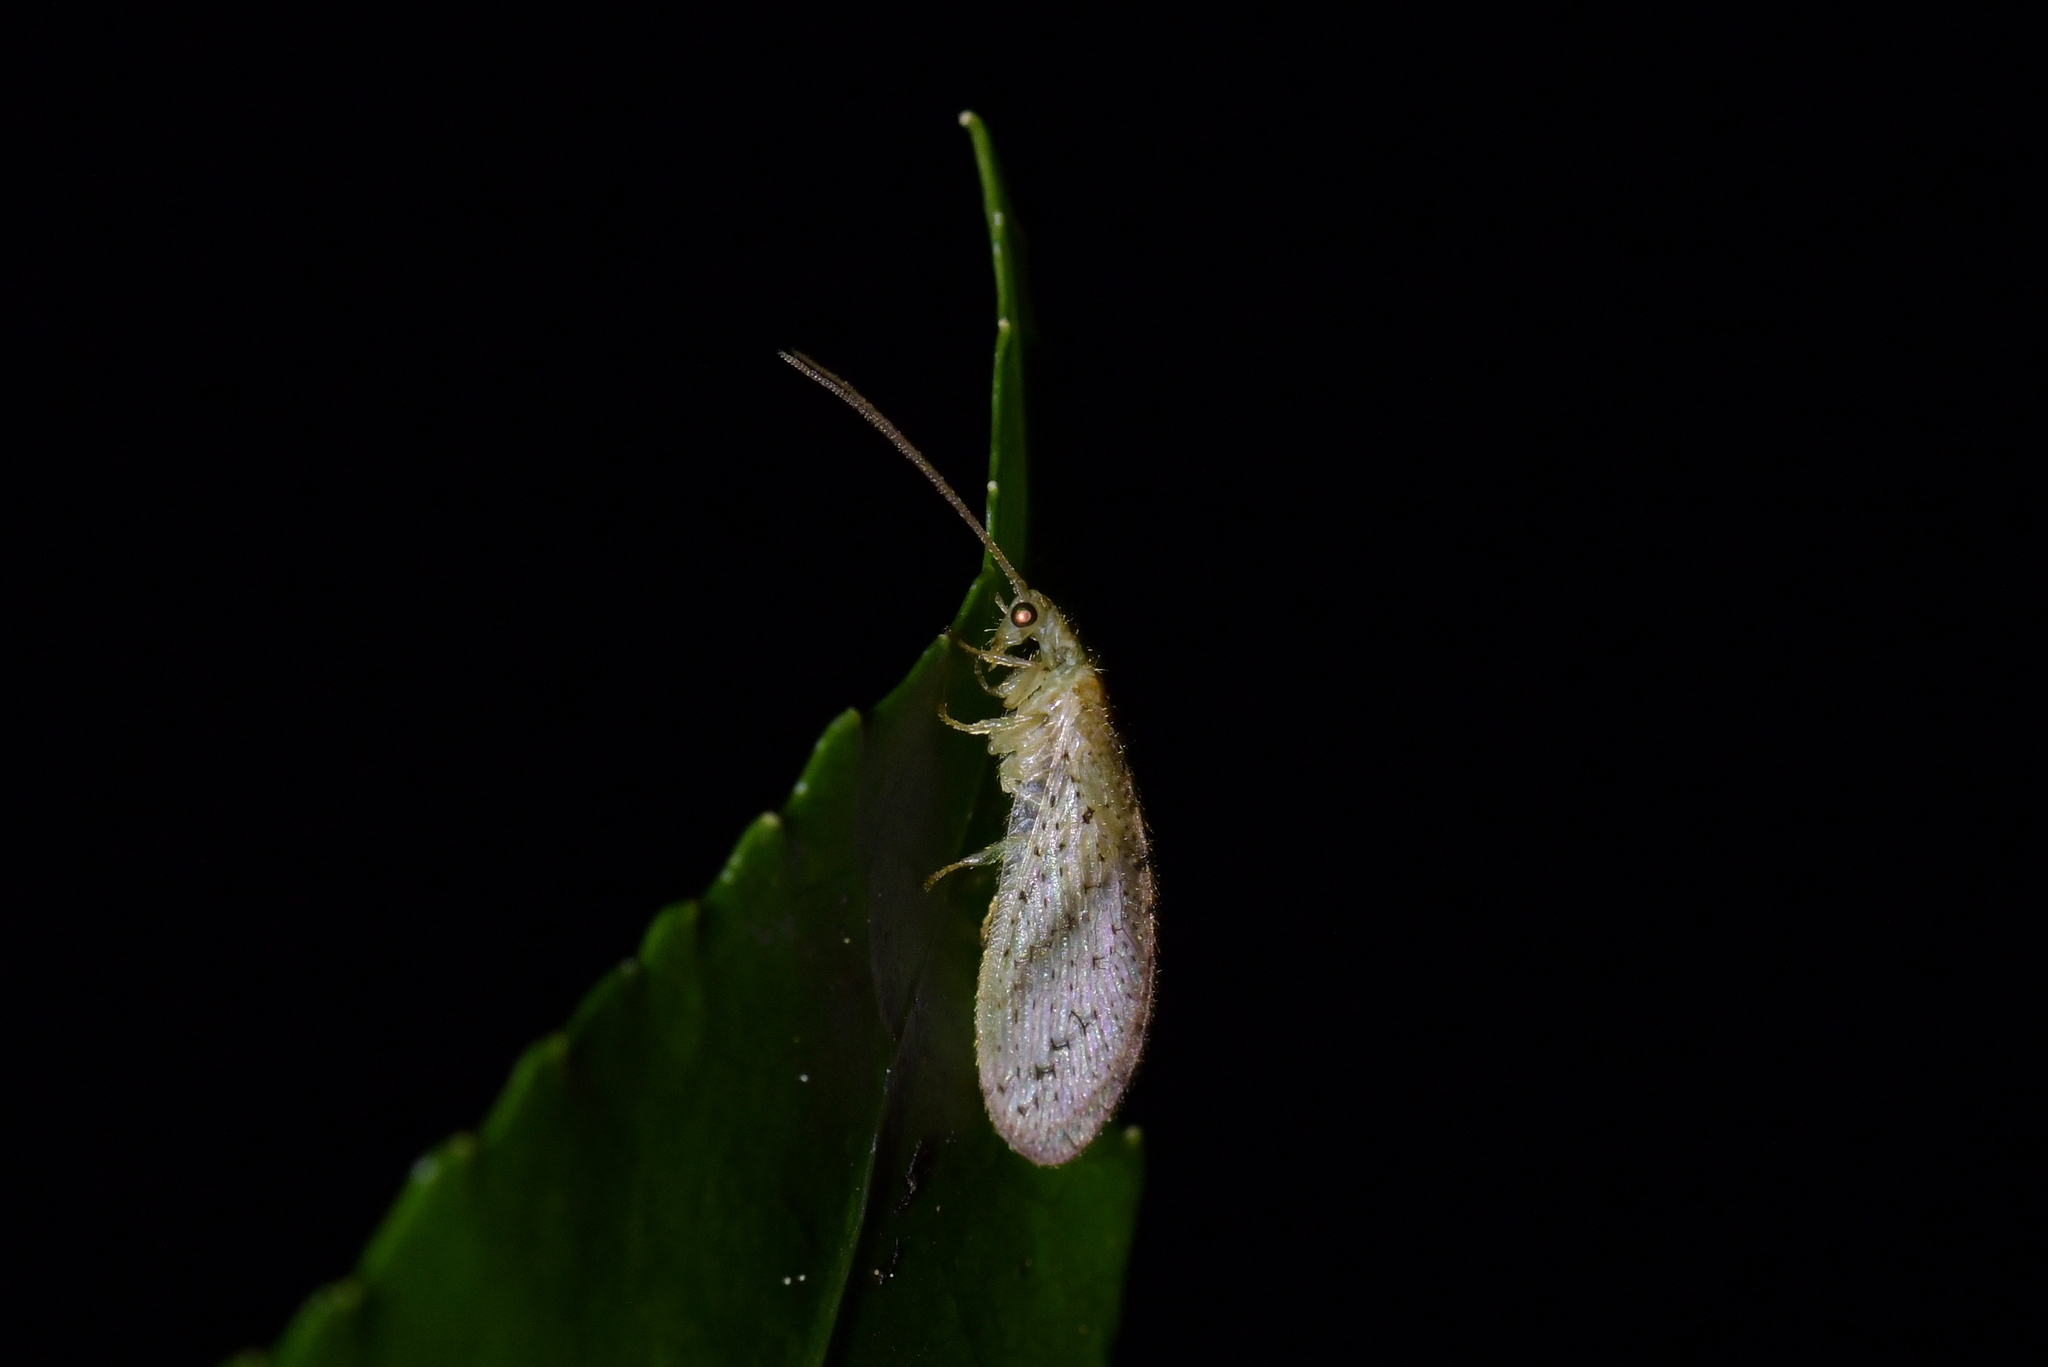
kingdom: Animalia
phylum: Arthropoda
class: Insecta
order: Neuroptera
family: Hemerobiidae
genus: Micromus
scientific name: Micromus tasmaniae
